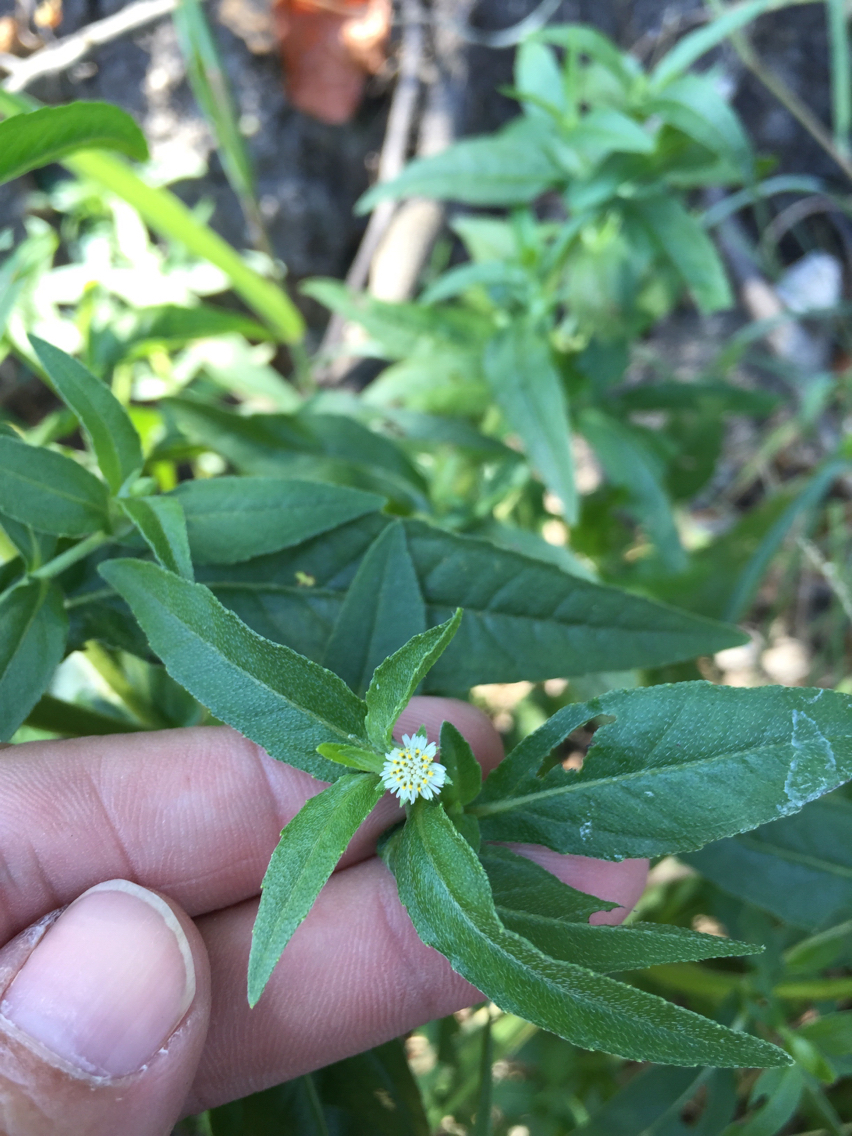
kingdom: Plantae
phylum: Tracheophyta
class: Magnoliopsida
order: Asterales
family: Asteraceae
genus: Eclipta
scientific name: Eclipta prostrata
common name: False daisy
